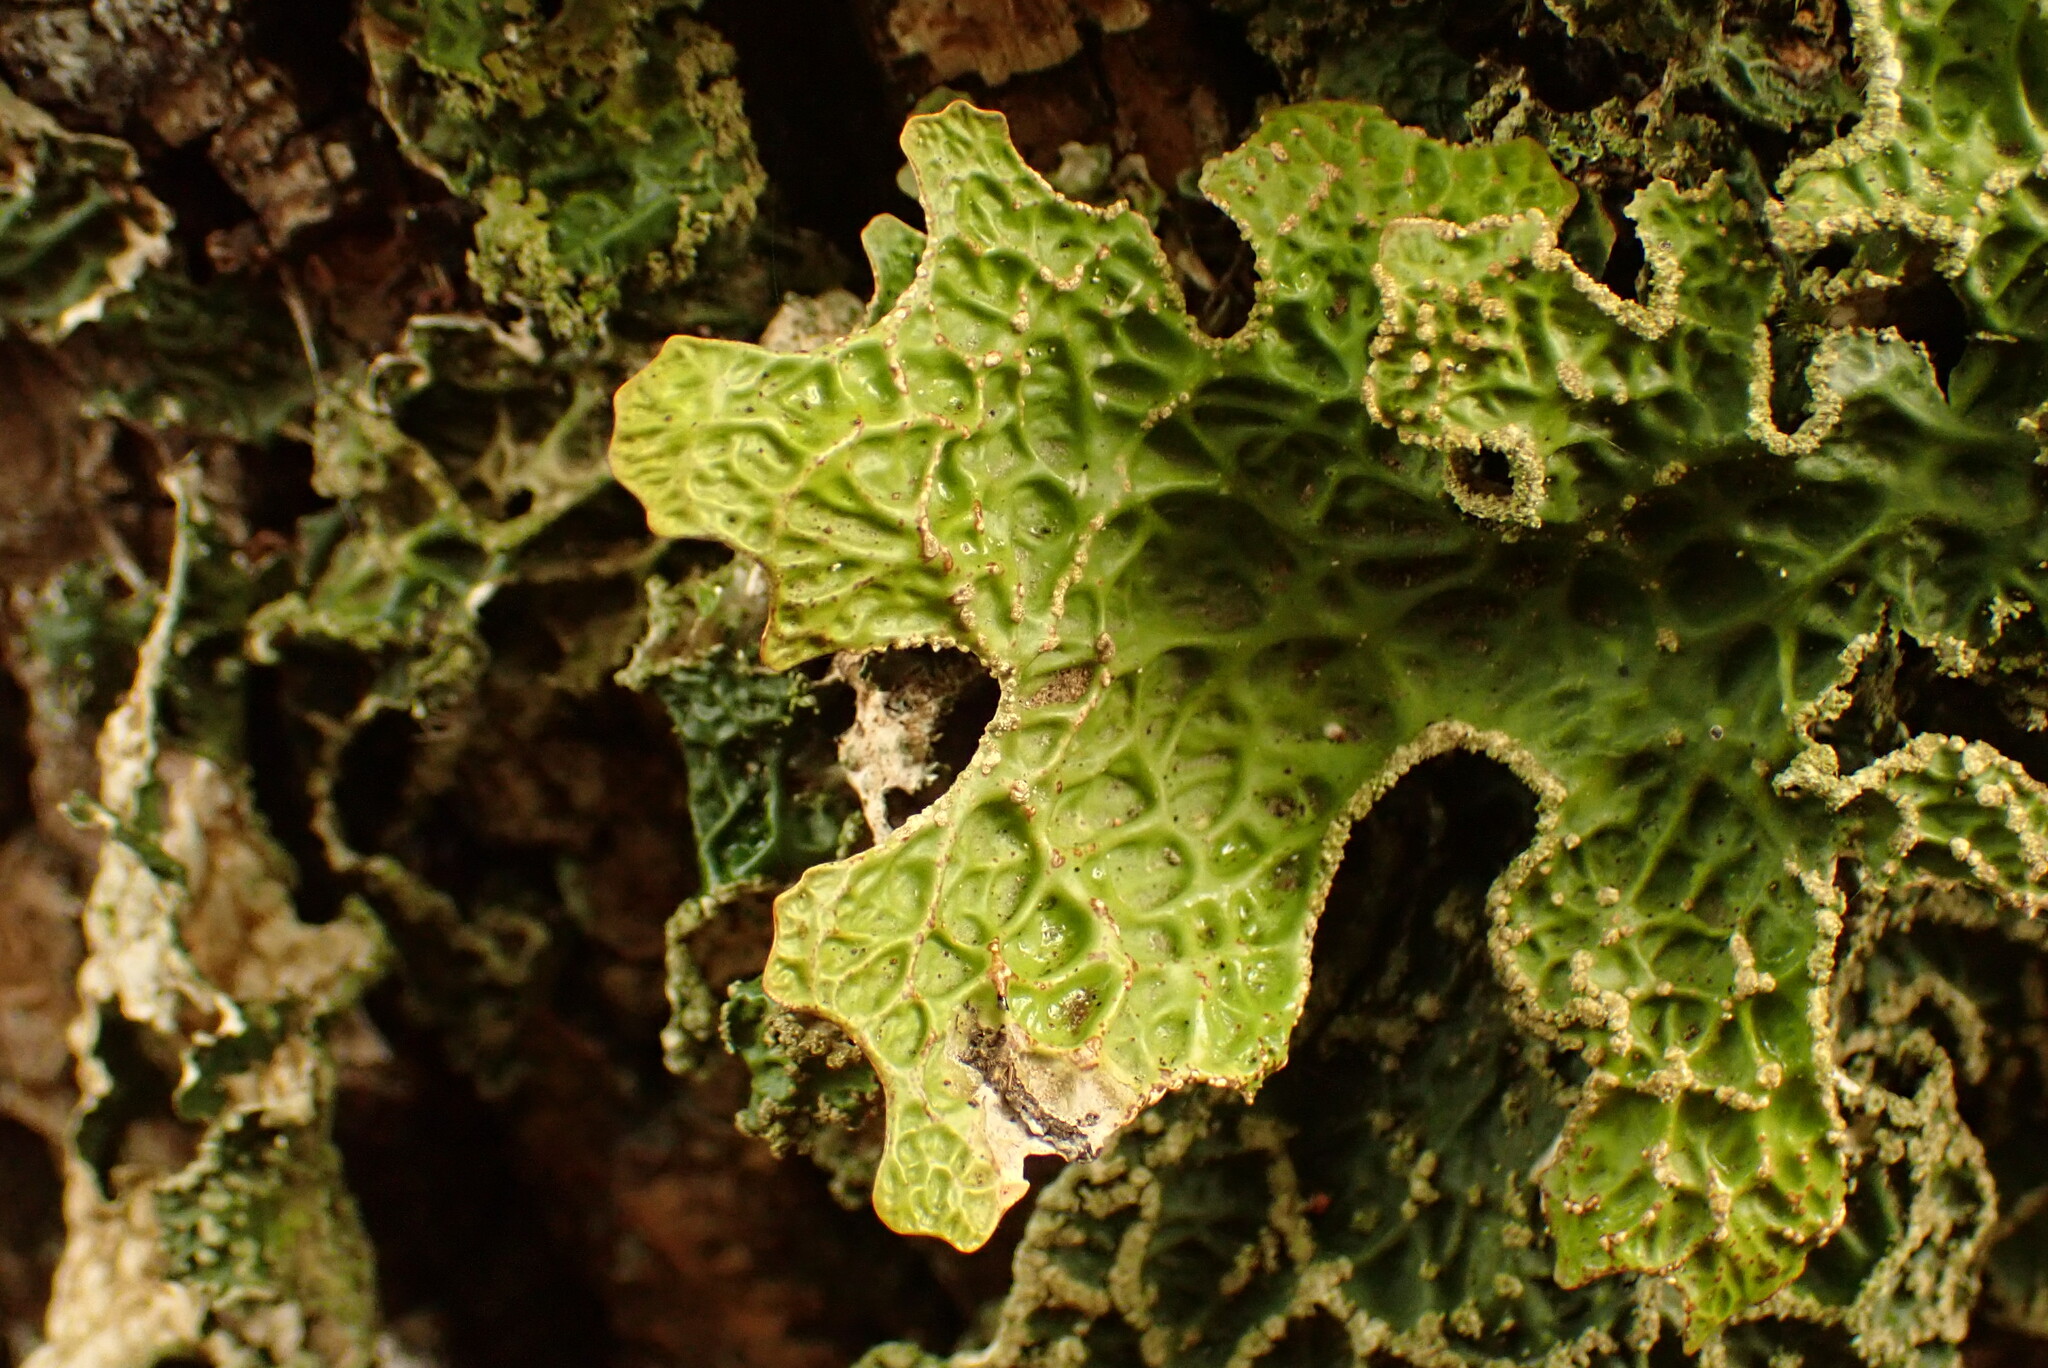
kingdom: Fungi
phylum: Ascomycota
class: Lecanoromycetes
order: Peltigerales
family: Lobariaceae
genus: Lobaria
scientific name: Lobaria pulmonaria
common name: Lungwort
